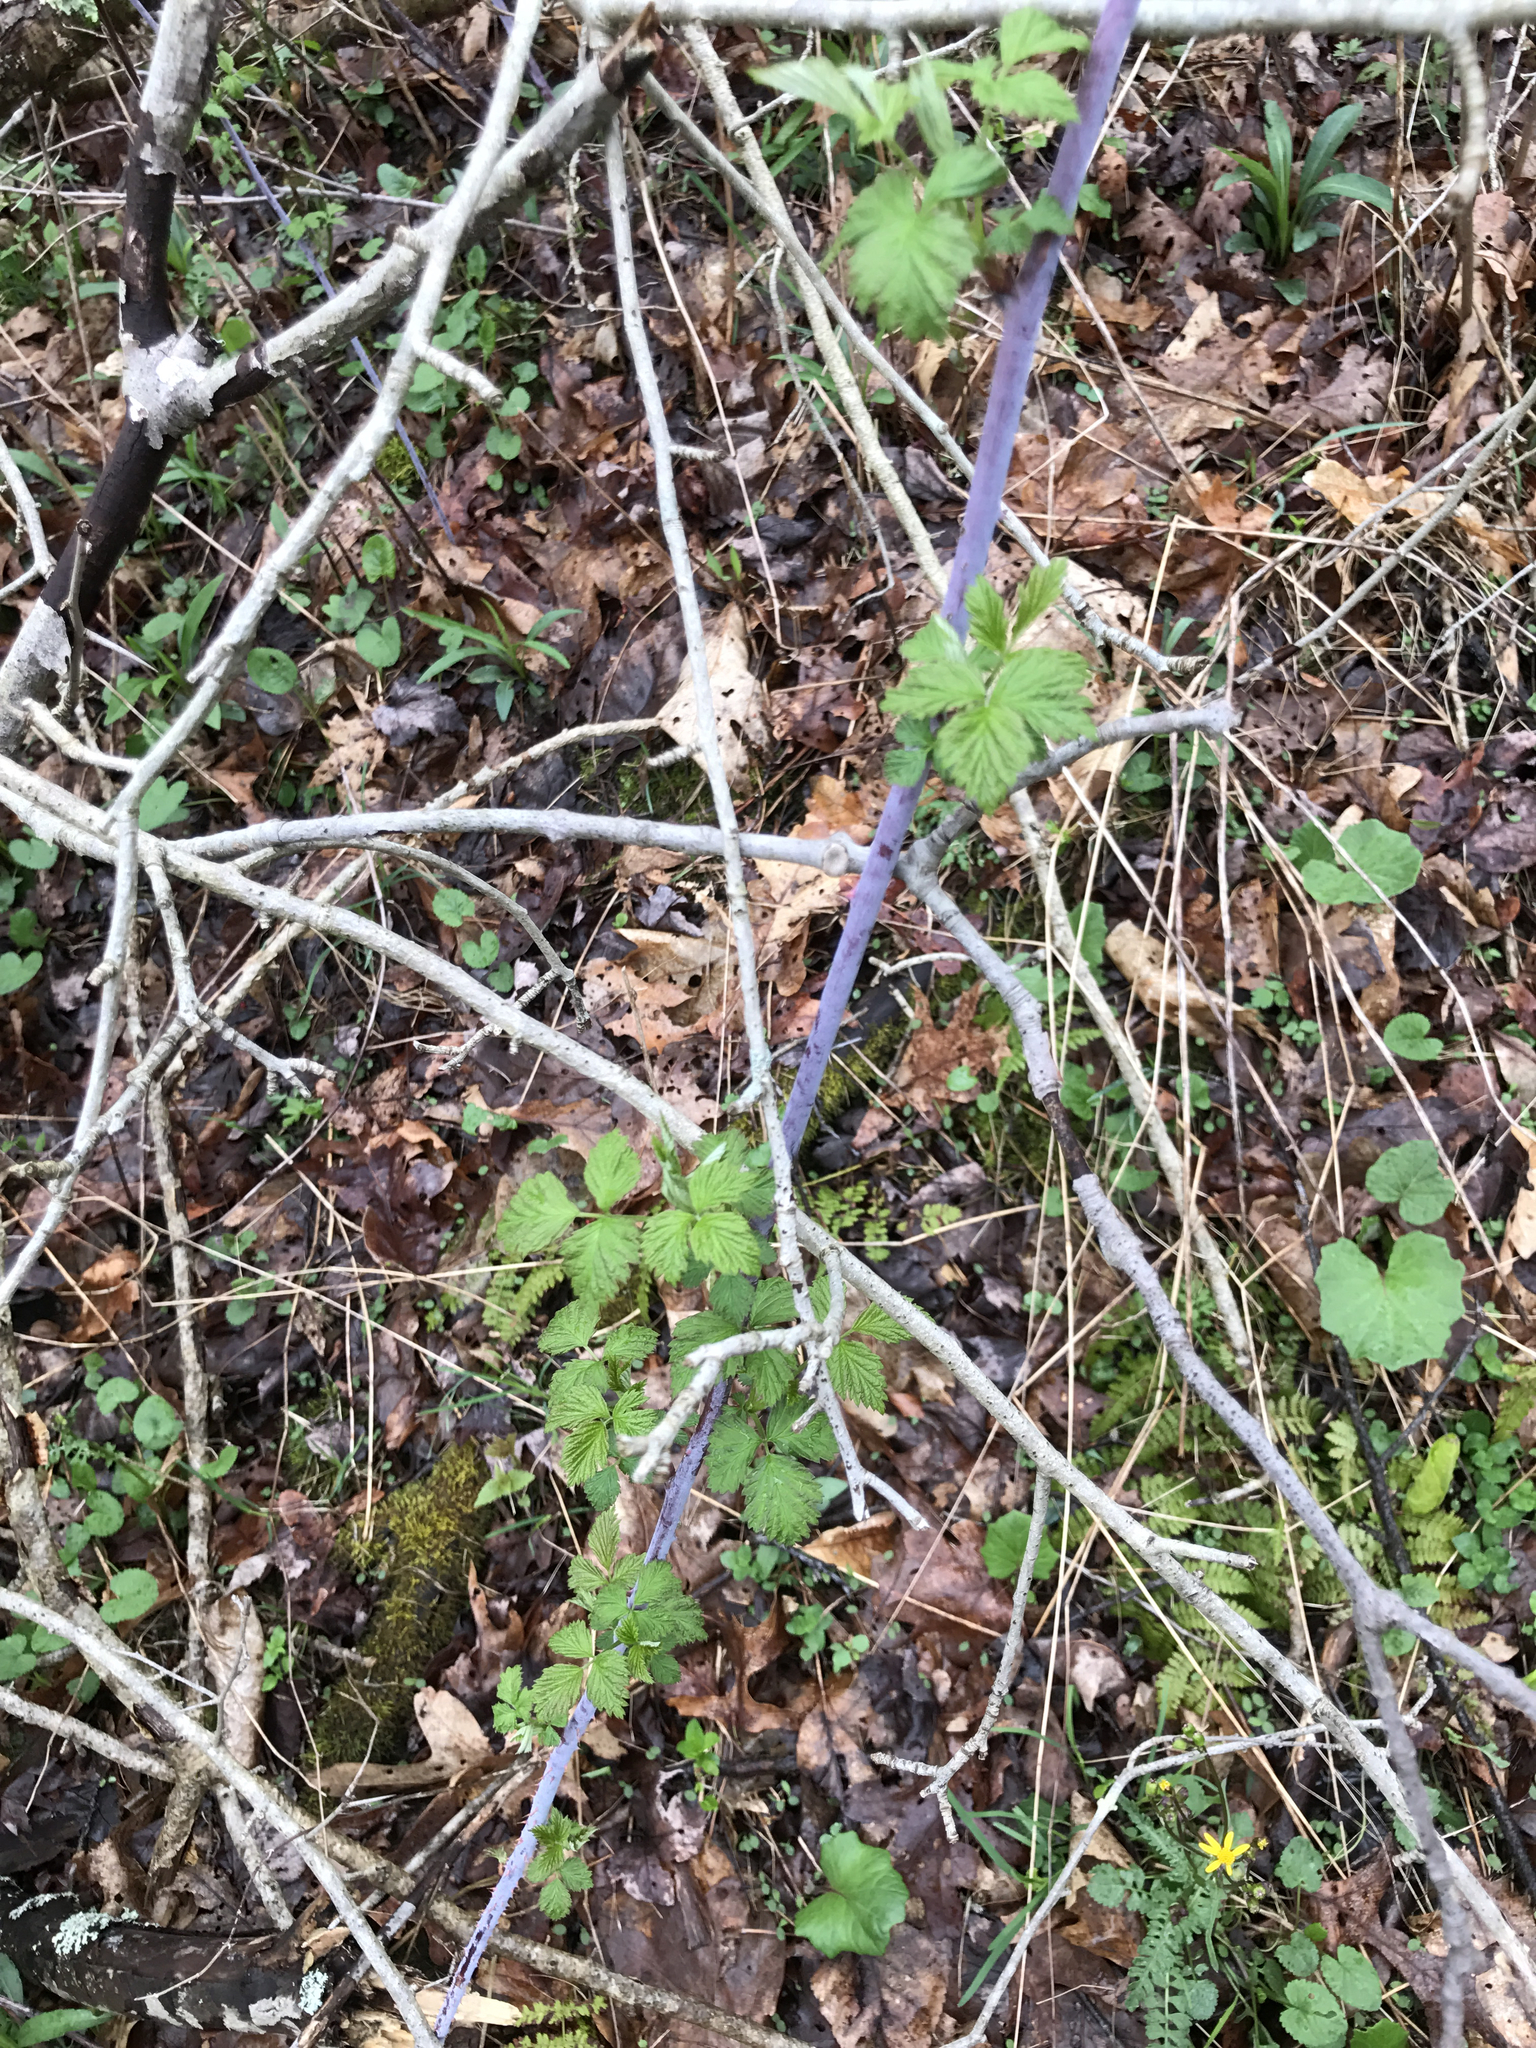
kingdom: Plantae
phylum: Tracheophyta
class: Magnoliopsida
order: Rosales
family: Rosaceae
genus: Rubus
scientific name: Rubus occidentalis
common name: Black raspberry
